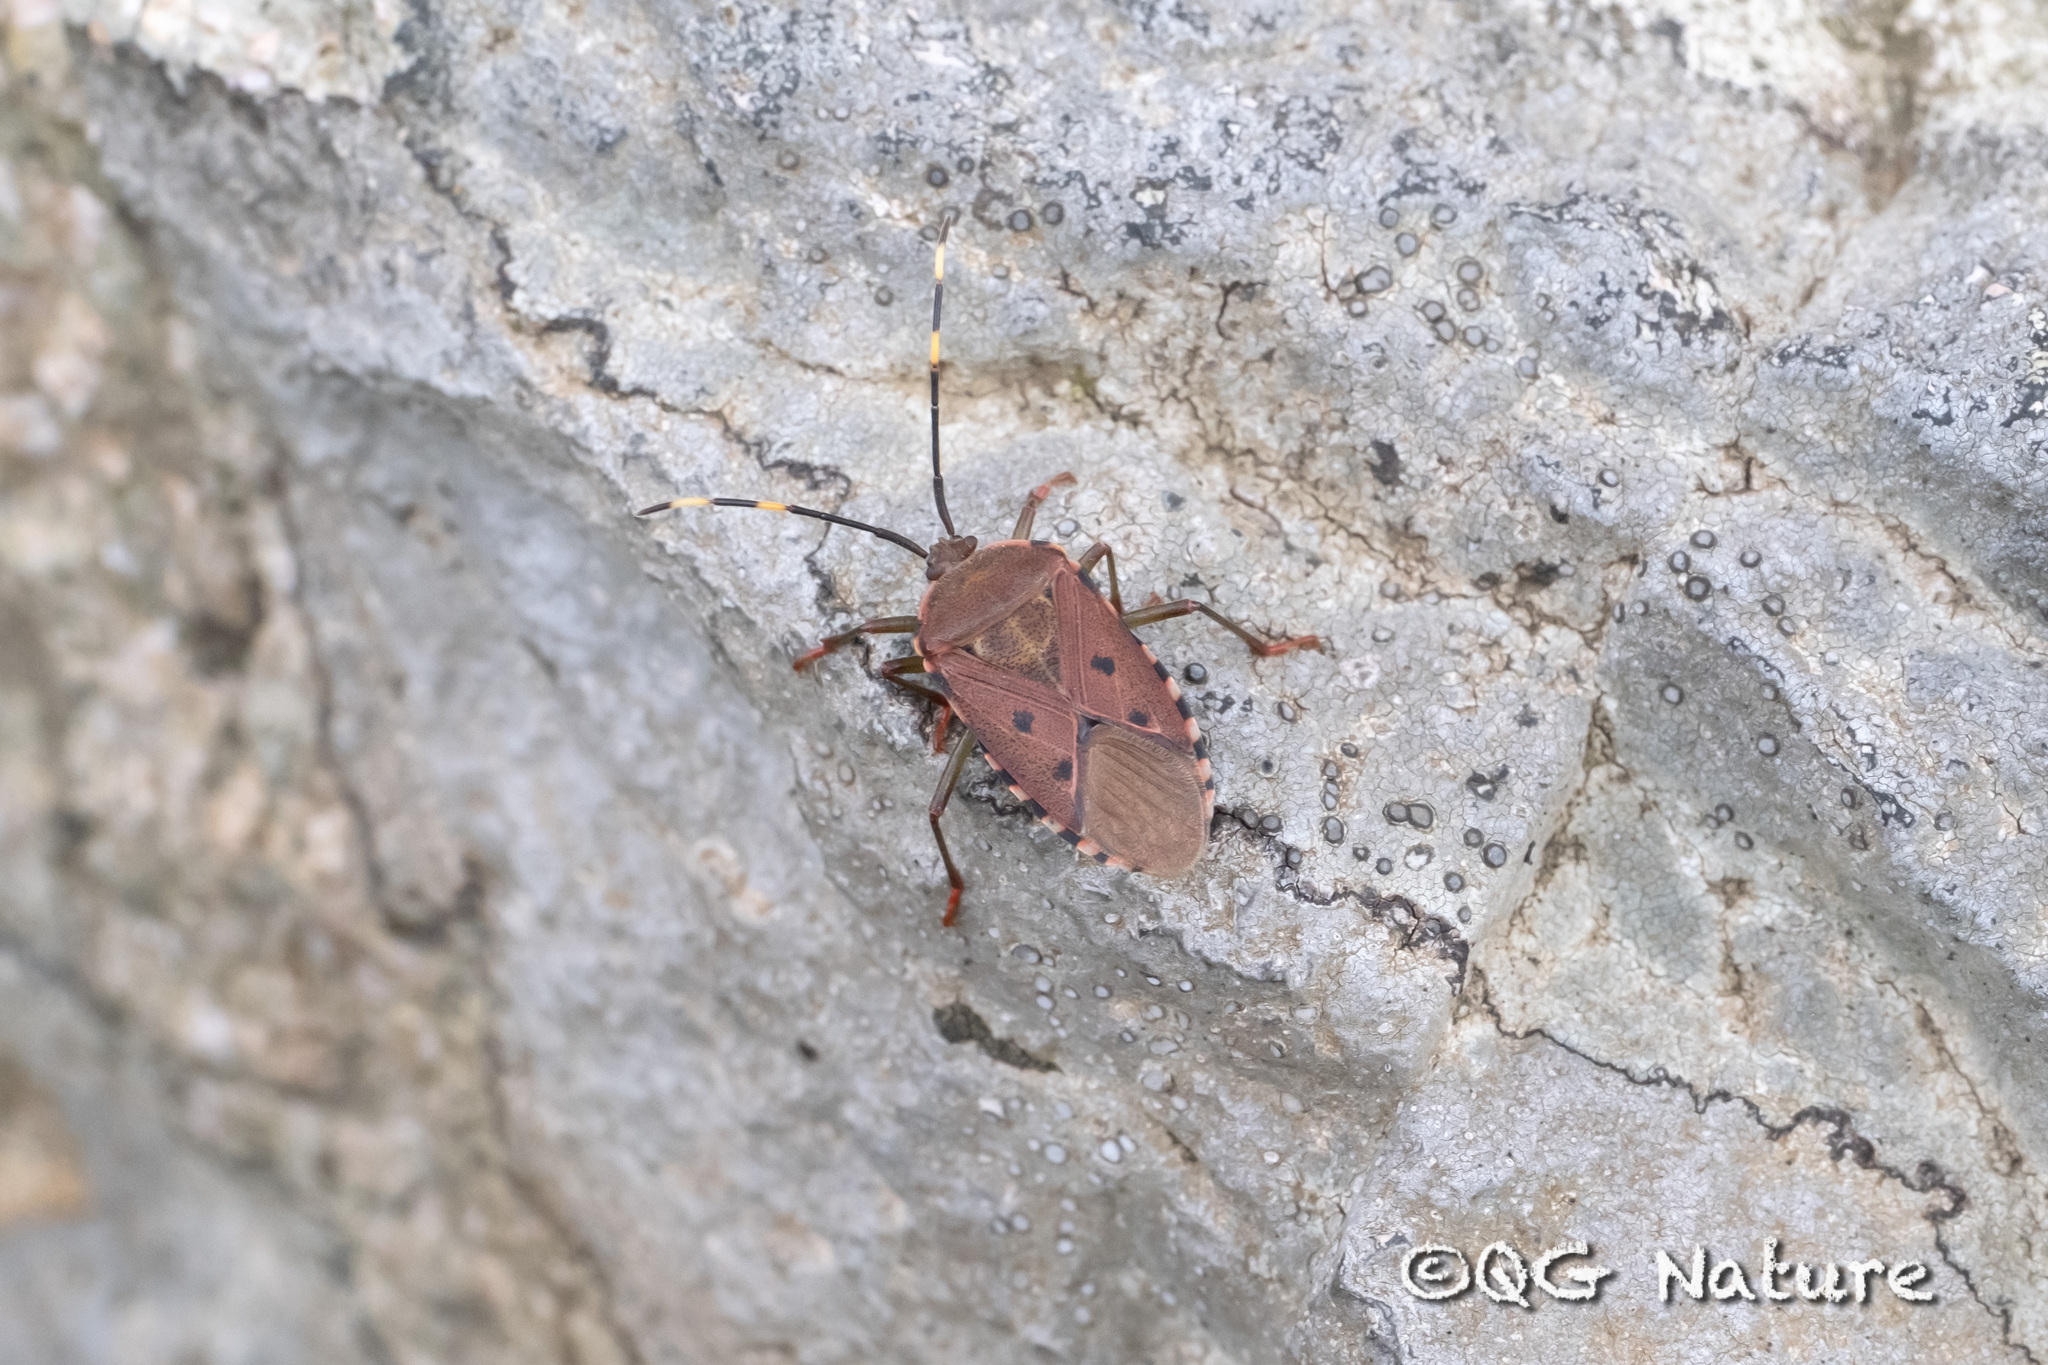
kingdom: Animalia
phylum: Arthropoda
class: Insecta
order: Hemiptera
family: Urostylididae
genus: Urochela
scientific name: Urochela quadrinotata
